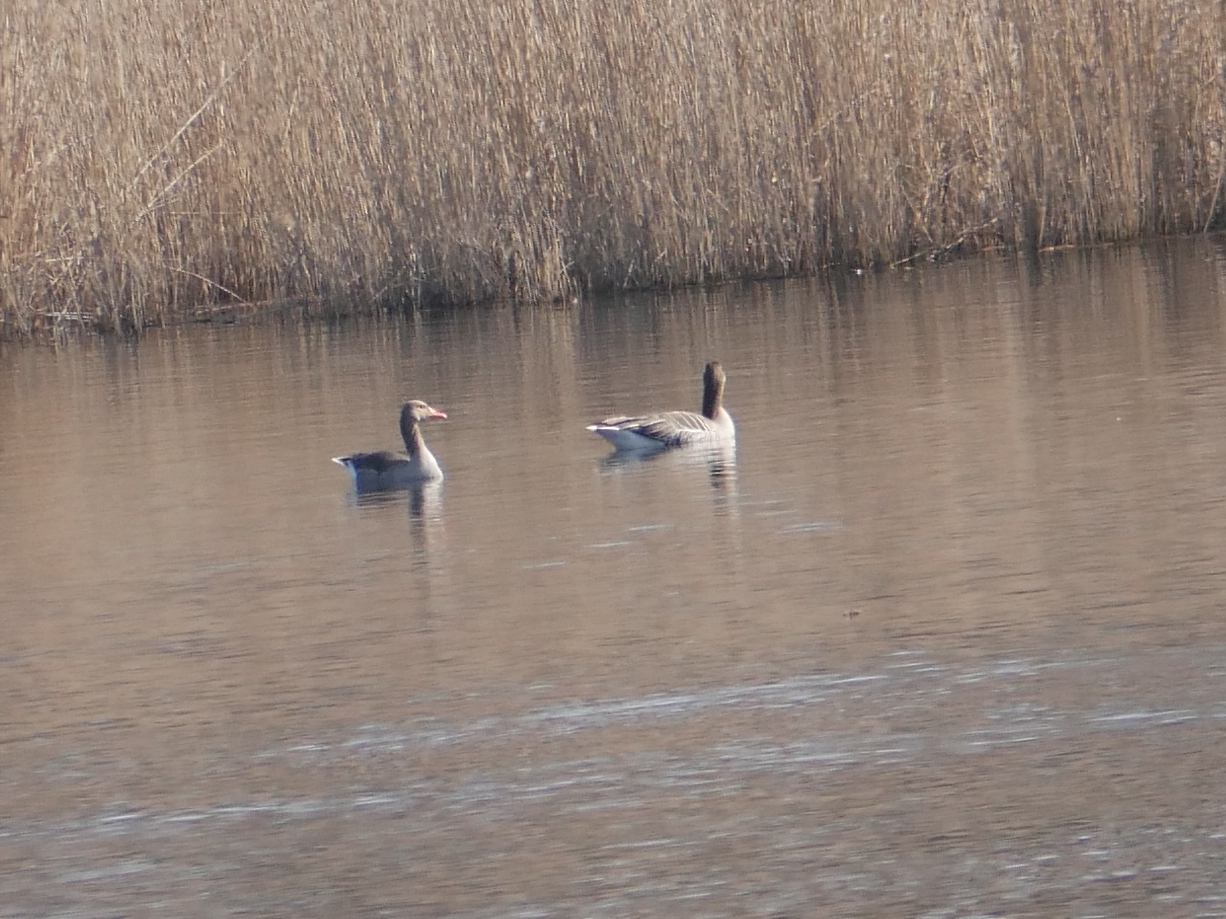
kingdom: Animalia
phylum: Chordata
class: Aves
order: Anseriformes
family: Anatidae
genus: Anser
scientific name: Anser anser
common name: Greylag goose
